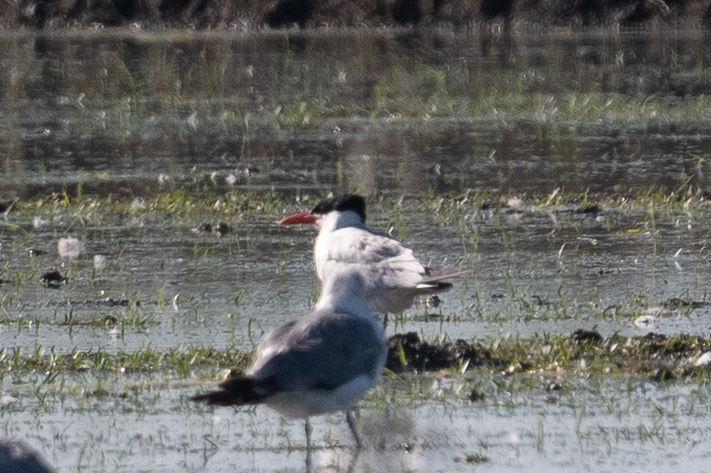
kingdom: Animalia
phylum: Chordata
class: Aves
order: Charadriiformes
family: Laridae
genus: Hydroprogne
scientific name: Hydroprogne caspia
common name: Caspian tern
